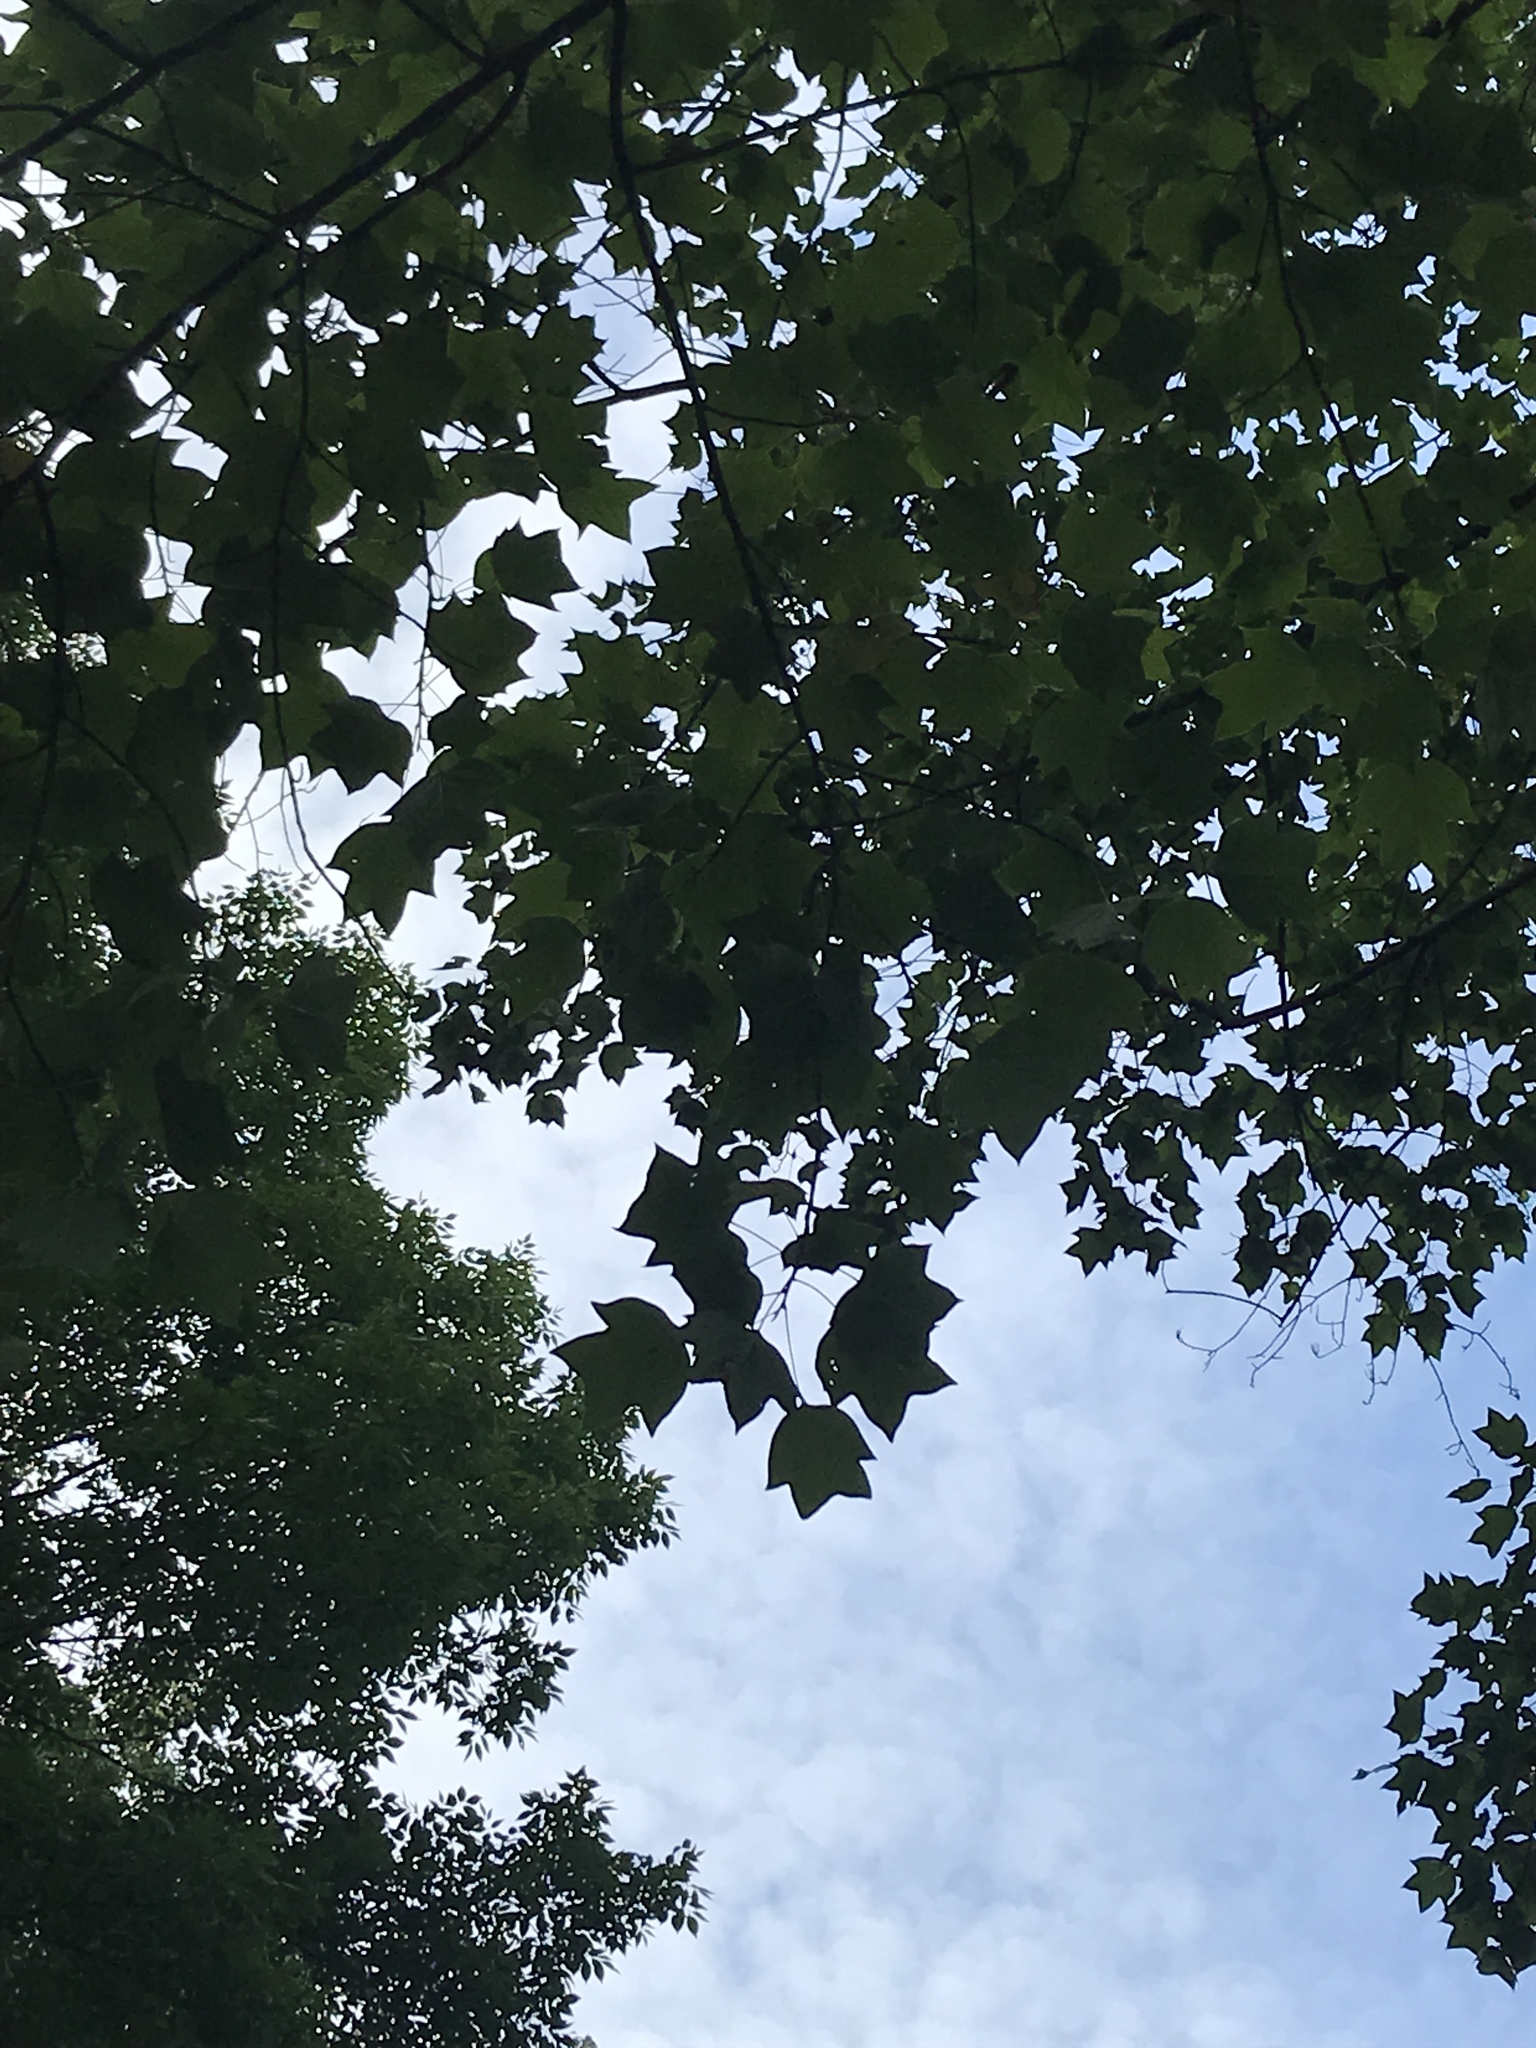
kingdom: Plantae
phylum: Tracheophyta
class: Magnoliopsida
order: Magnoliales
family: Magnoliaceae
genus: Liriodendron
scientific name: Liriodendron tulipifera
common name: Tulip tree
